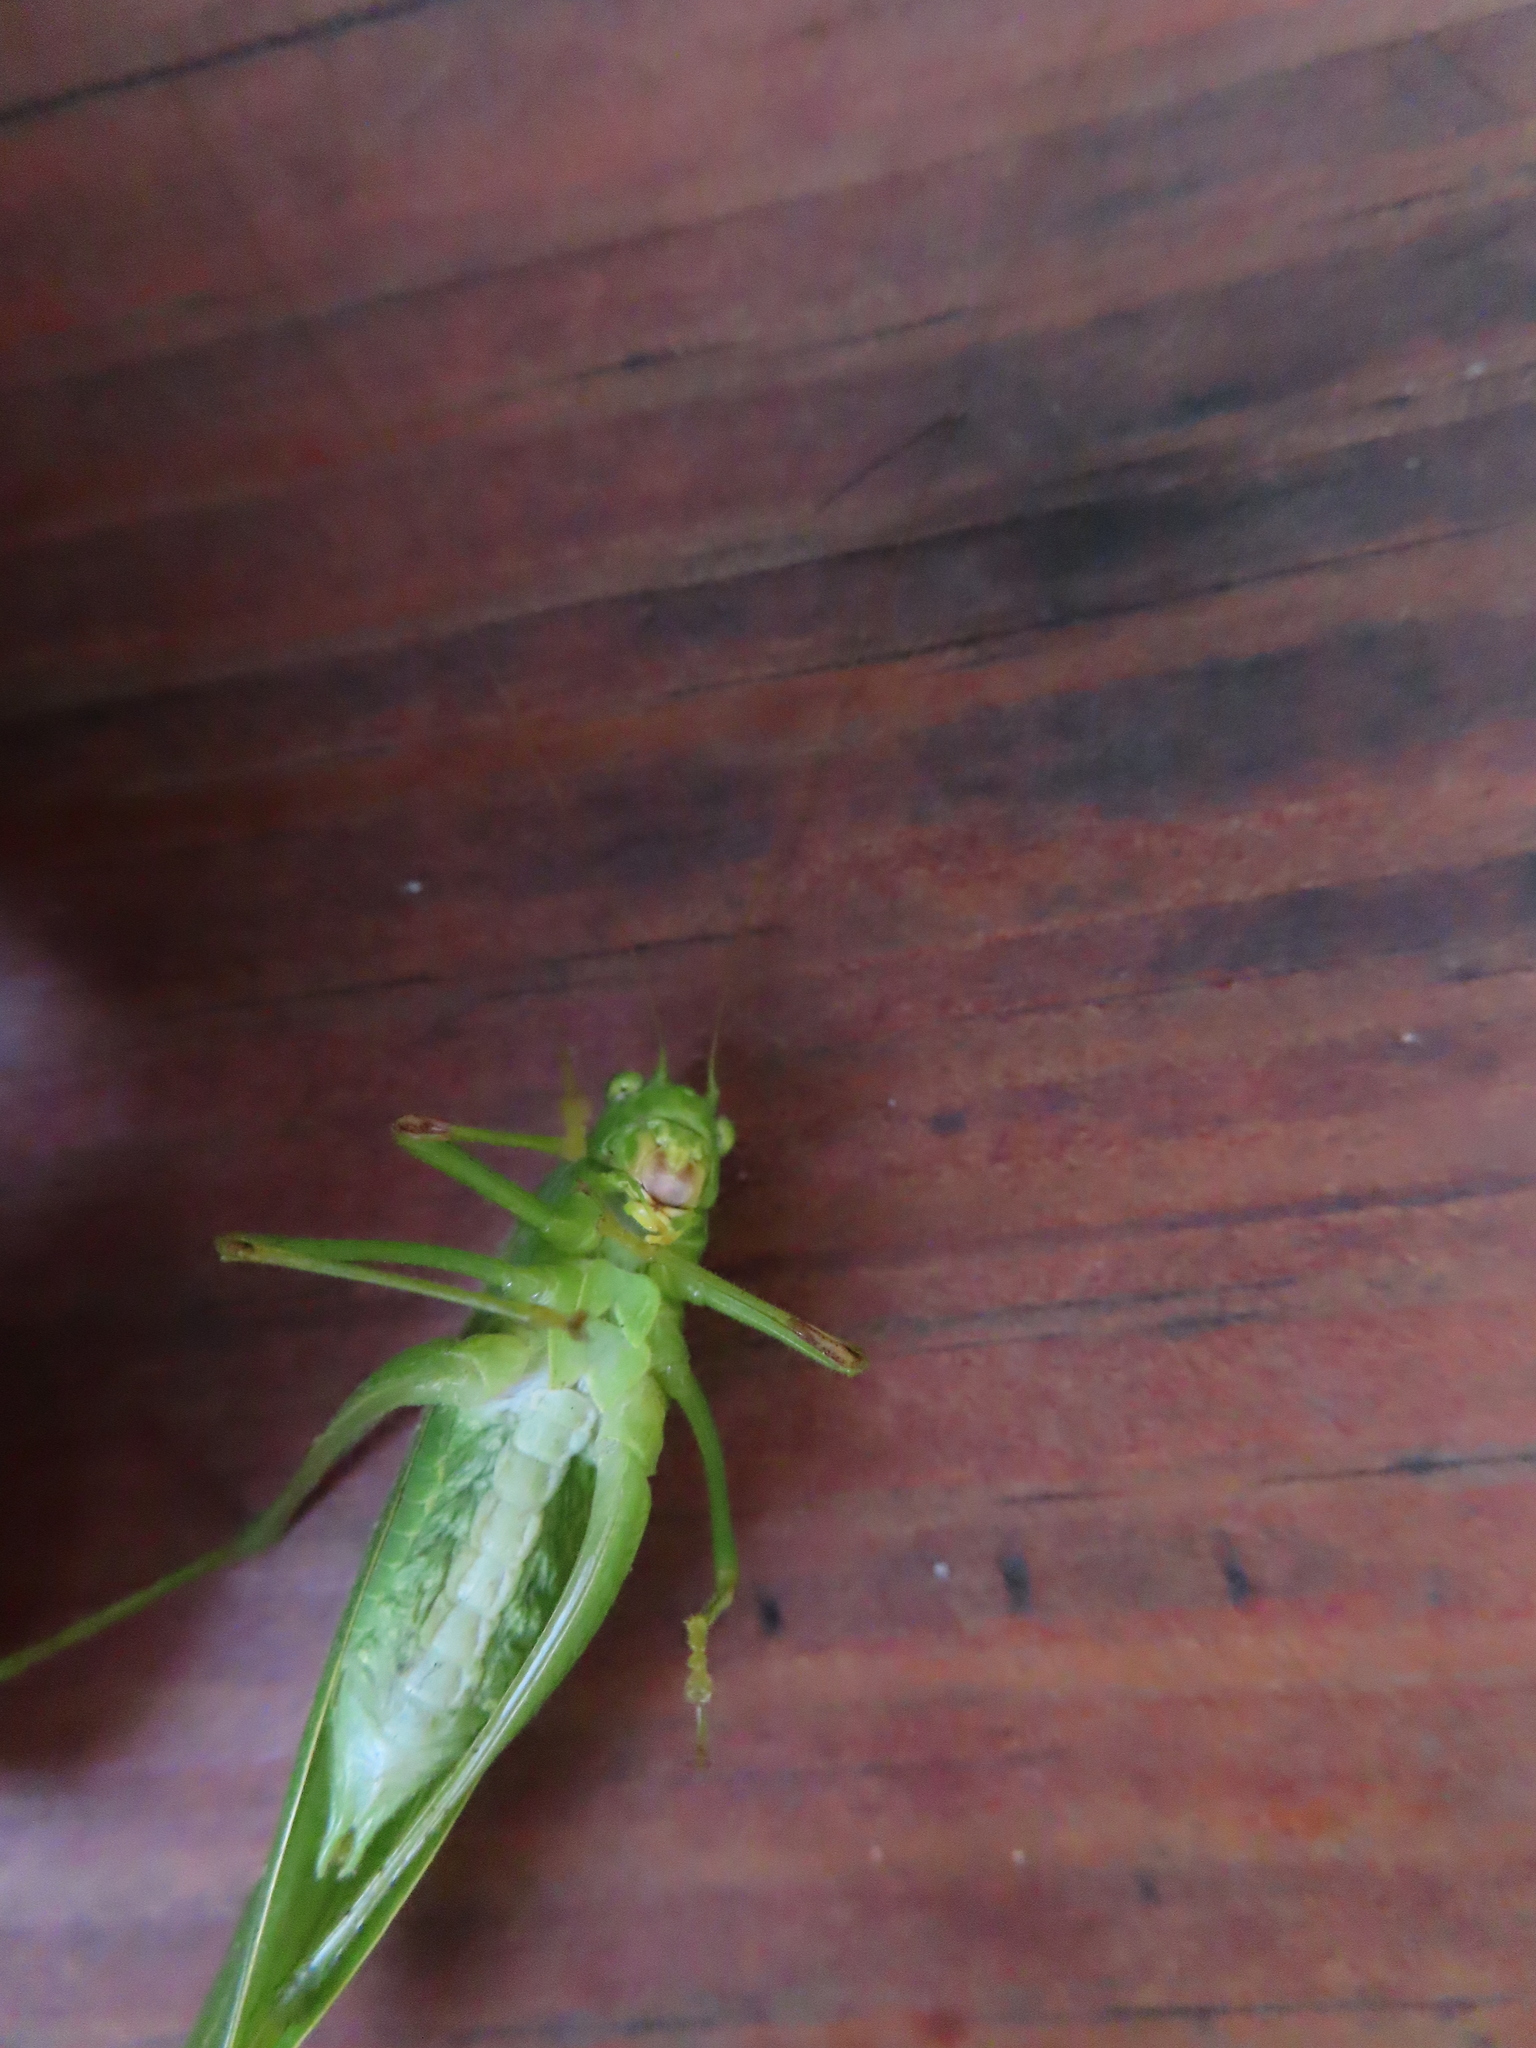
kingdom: Animalia
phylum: Arthropoda
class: Insecta
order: Orthoptera
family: Tettigoniidae
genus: Microcentrum
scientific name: Microcentrum retinerve
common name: Angular-winged katydid
